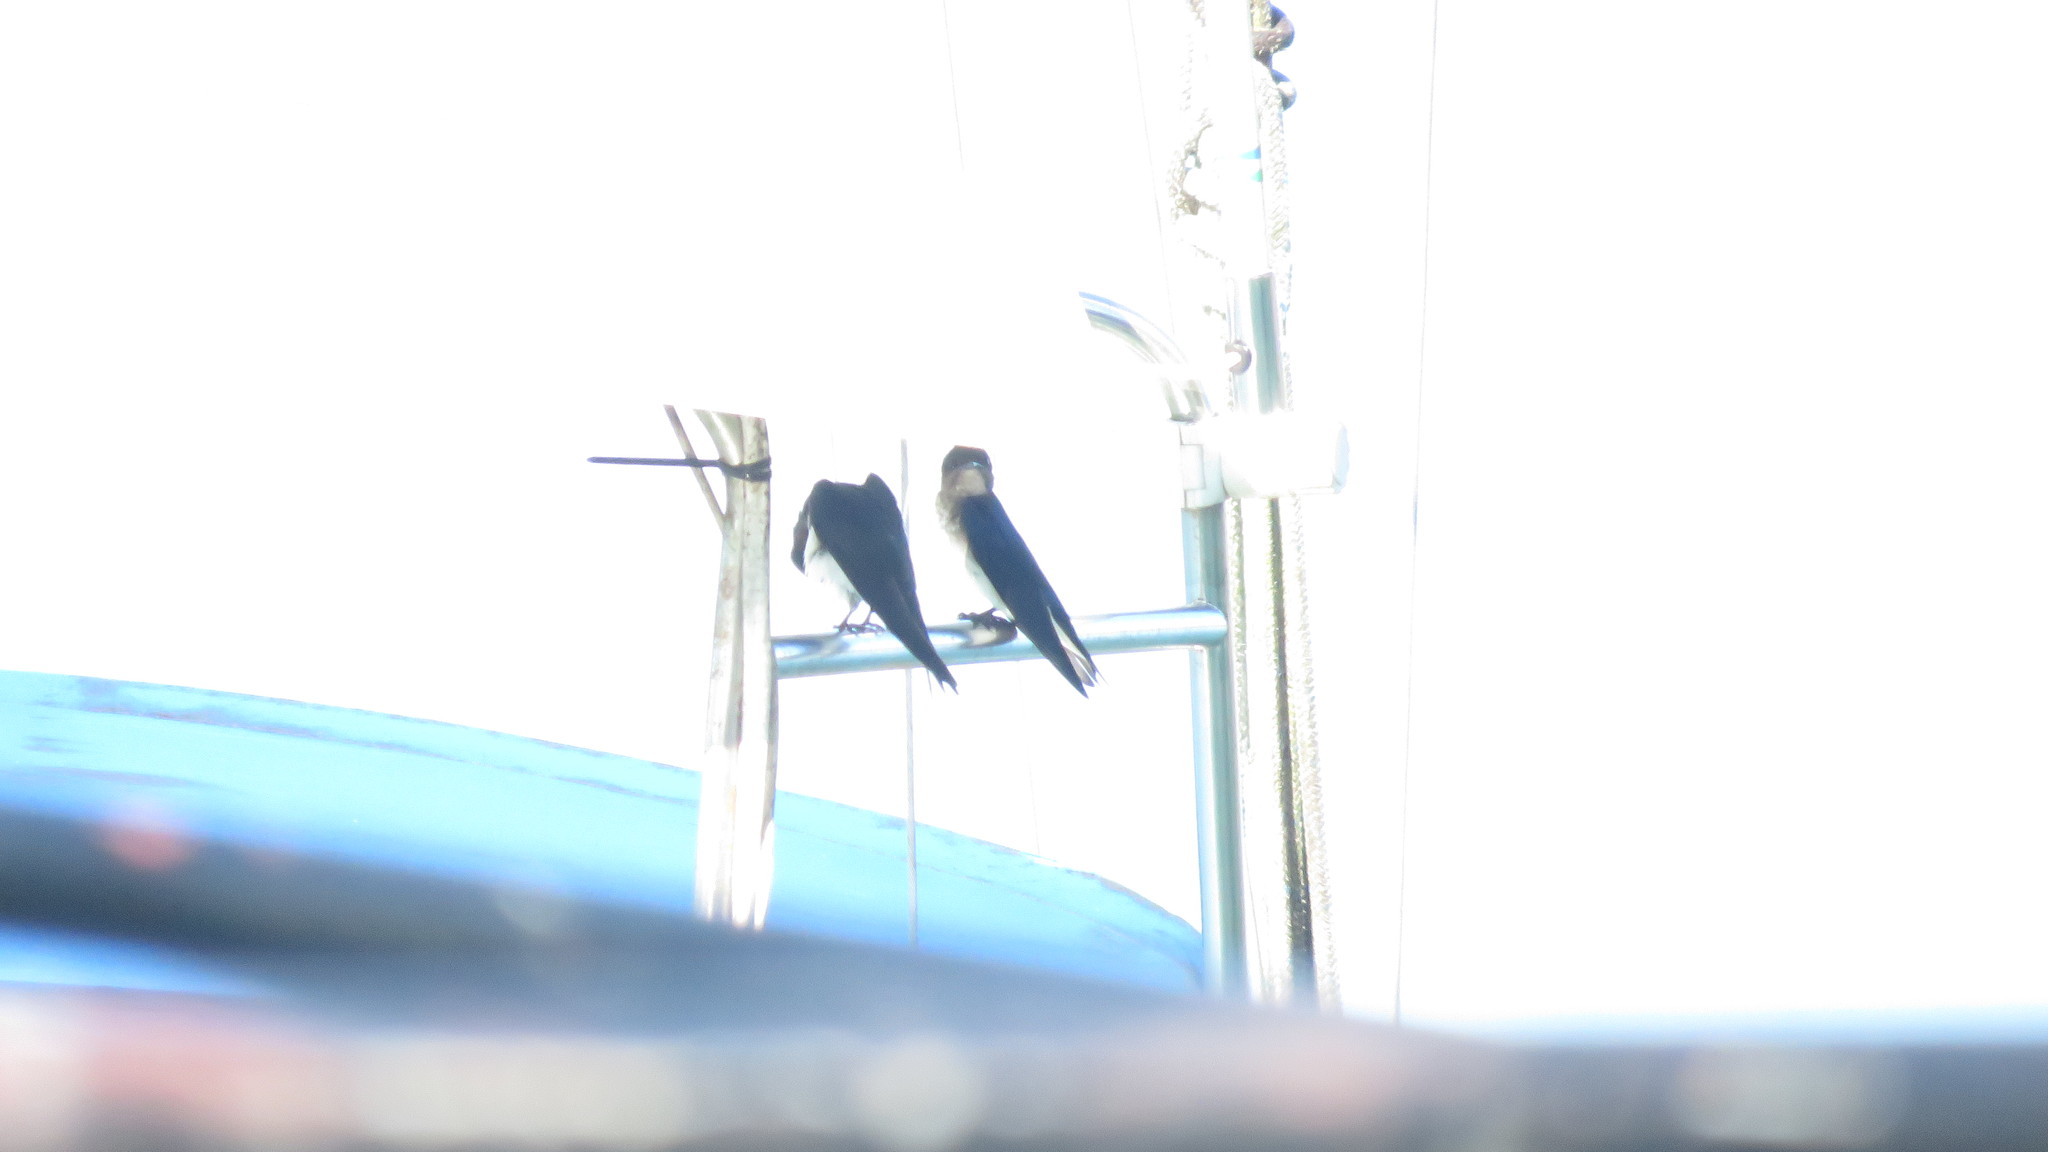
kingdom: Animalia
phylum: Chordata
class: Aves
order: Passeriformes
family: Hirundinidae
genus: Progne
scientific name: Progne chalybea
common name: Grey-breasted martin
